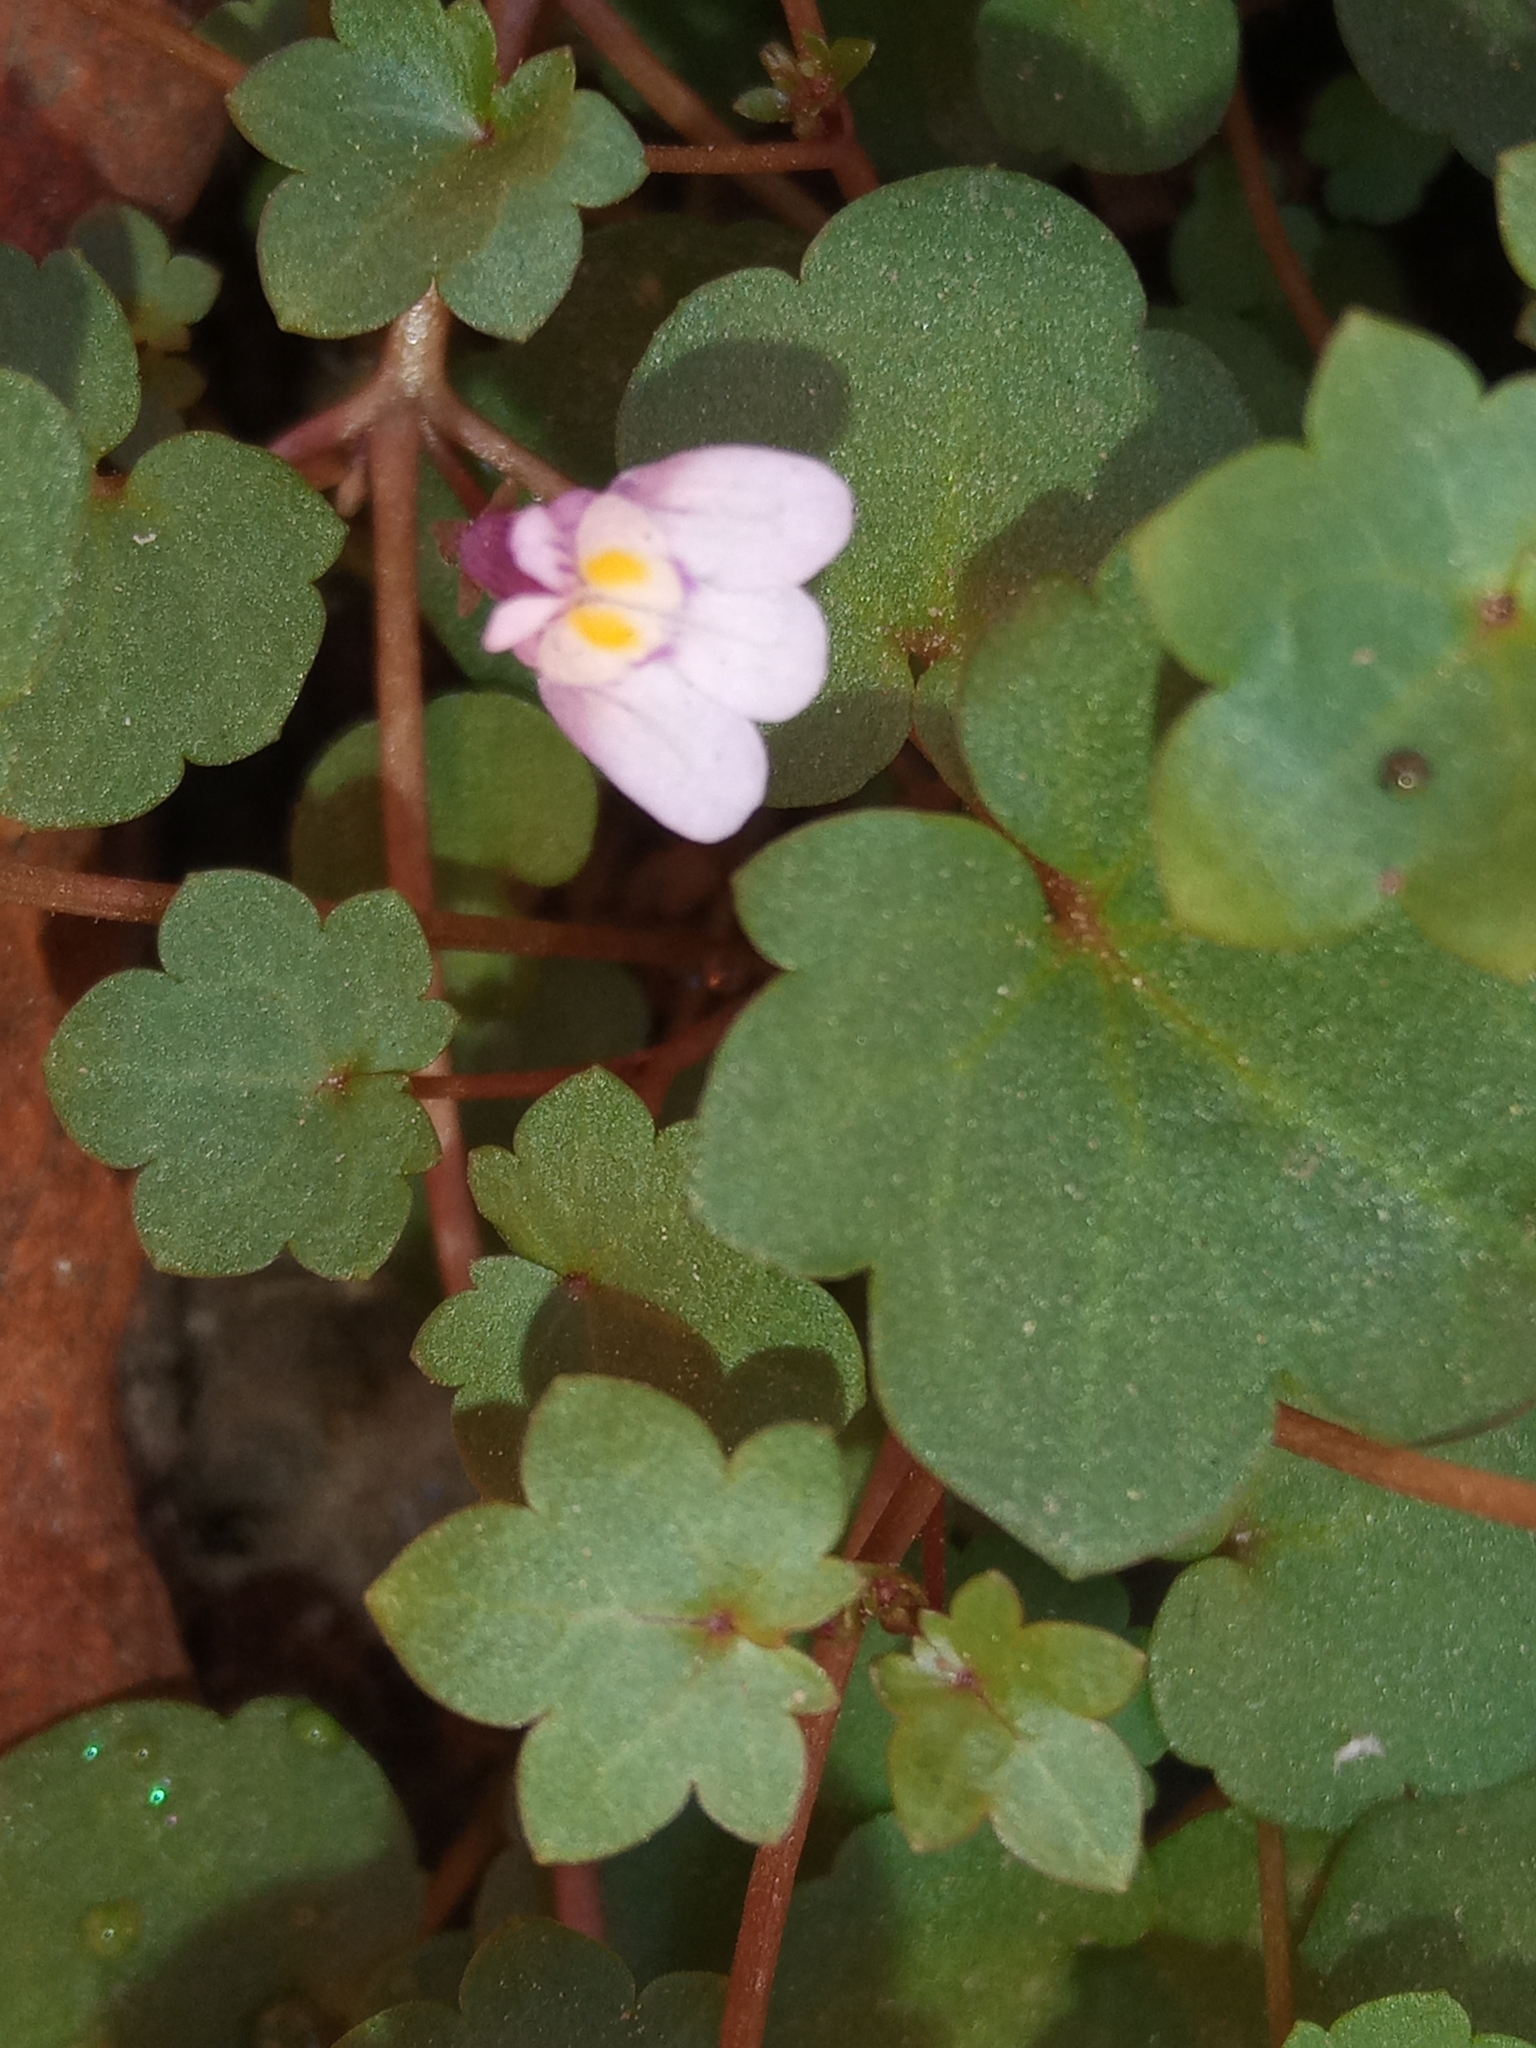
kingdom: Plantae
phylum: Tracheophyta
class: Magnoliopsida
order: Lamiales
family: Plantaginaceae
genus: Cymbalaria
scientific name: Cymbalaria muralis
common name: Ivy-leaved toadflax
